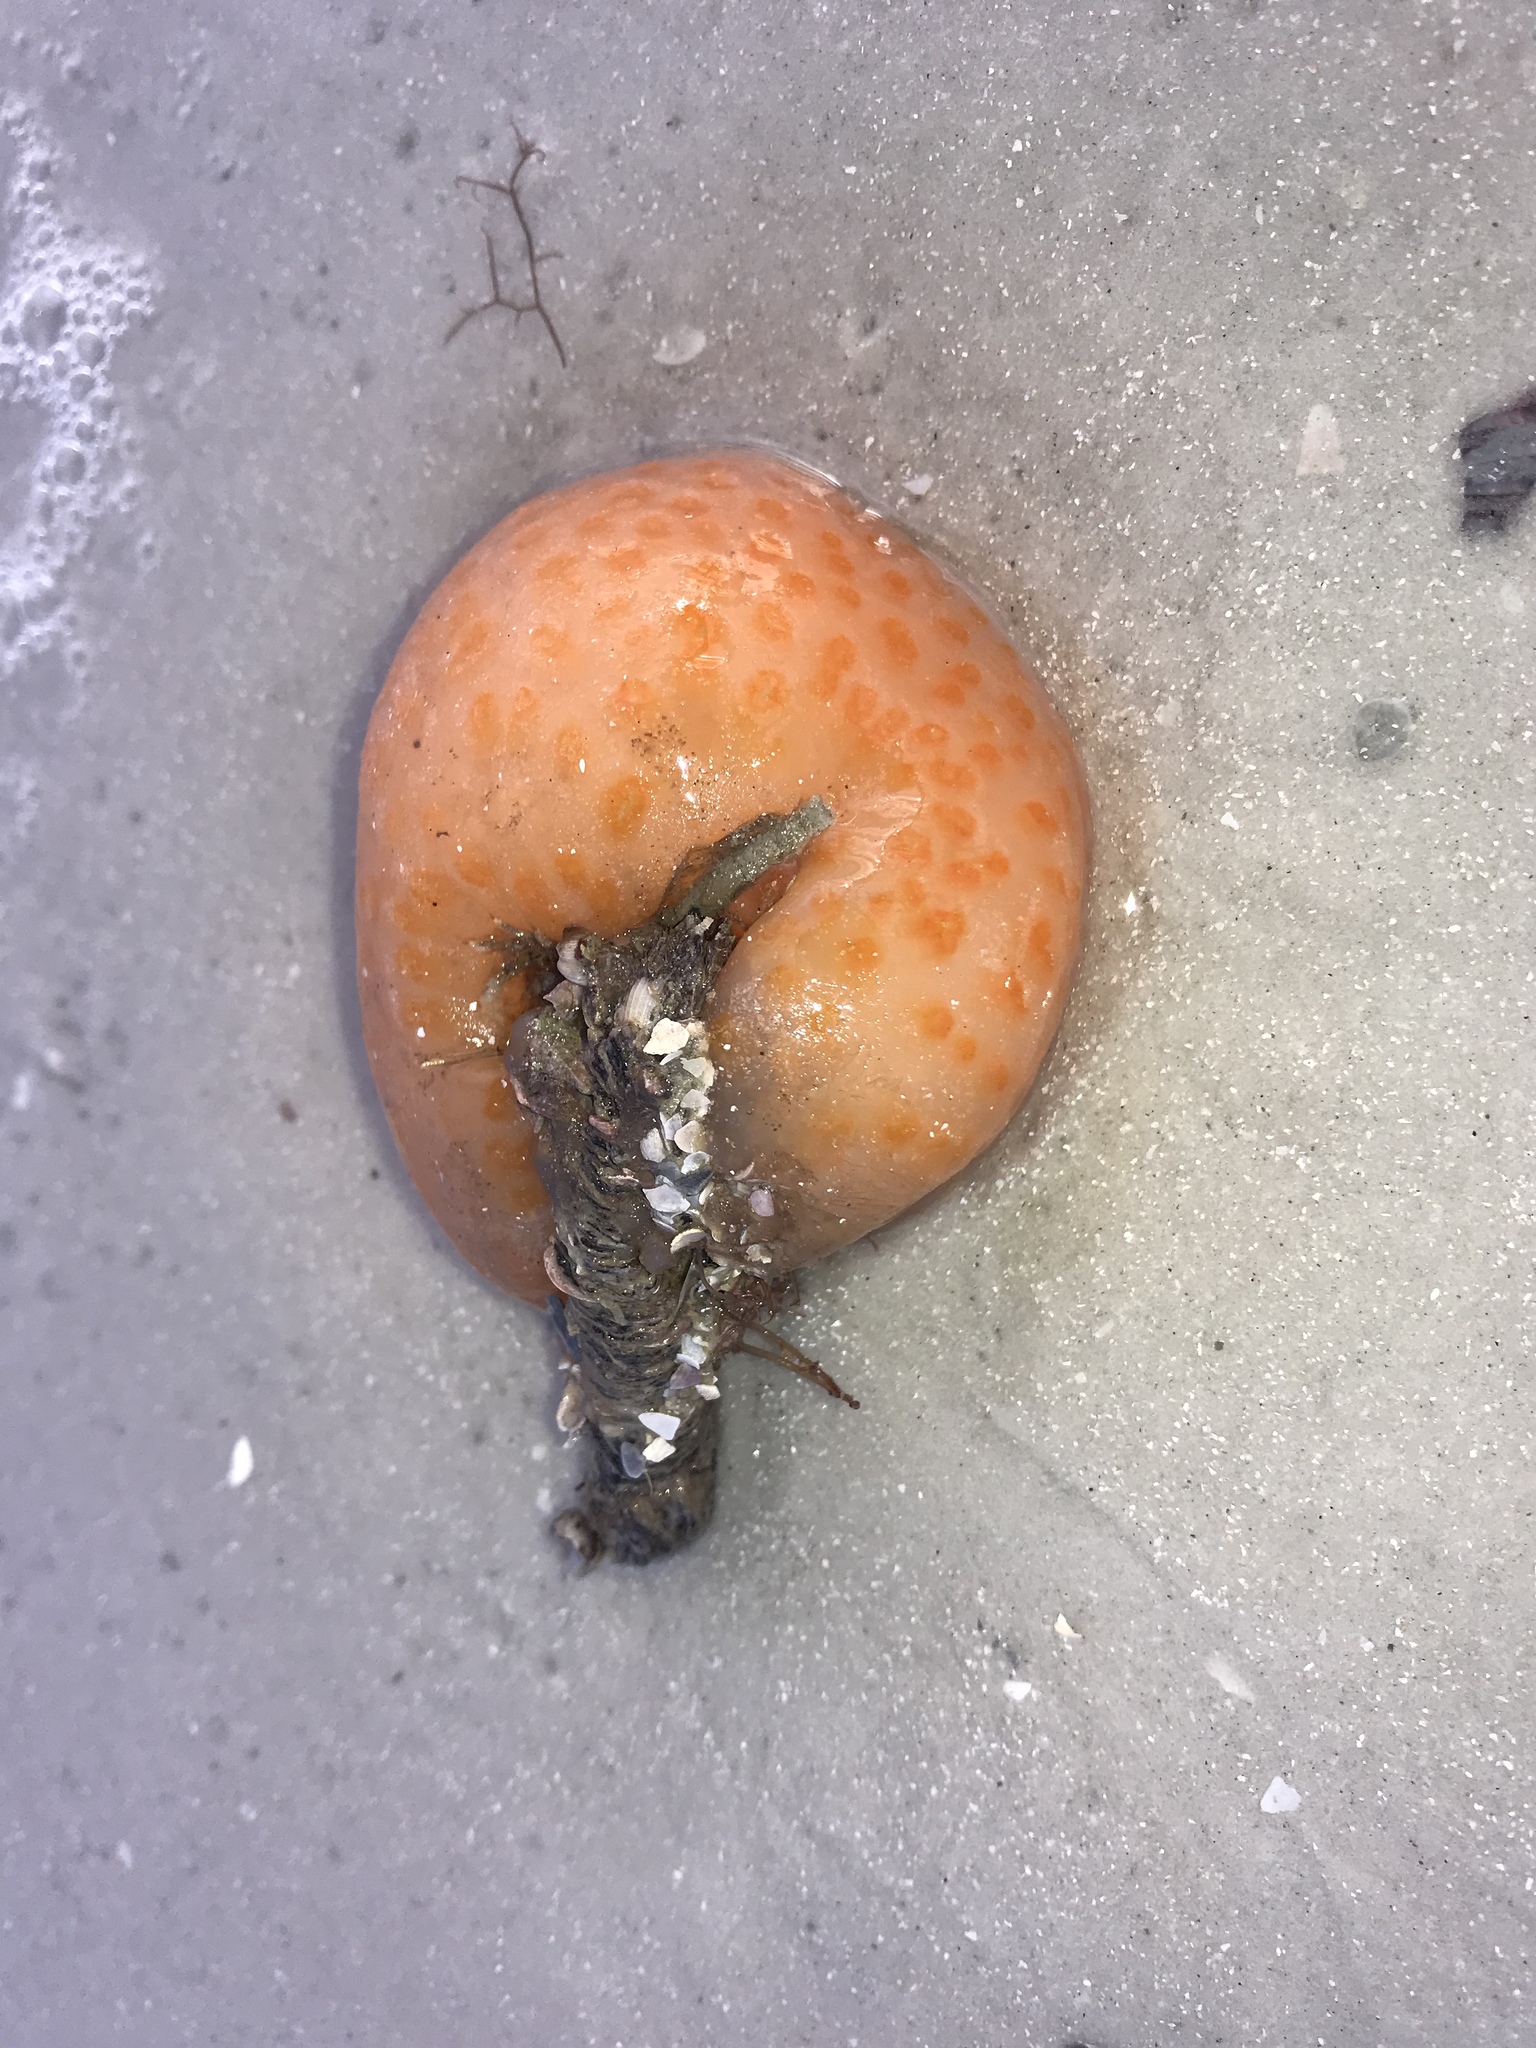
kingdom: Animalia
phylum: Chordata
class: Ascidiacea
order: Aplousobranchia
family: Polyclinidae
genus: Aplidium
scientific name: Aplidium stellatum
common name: Atlantic sea pork
